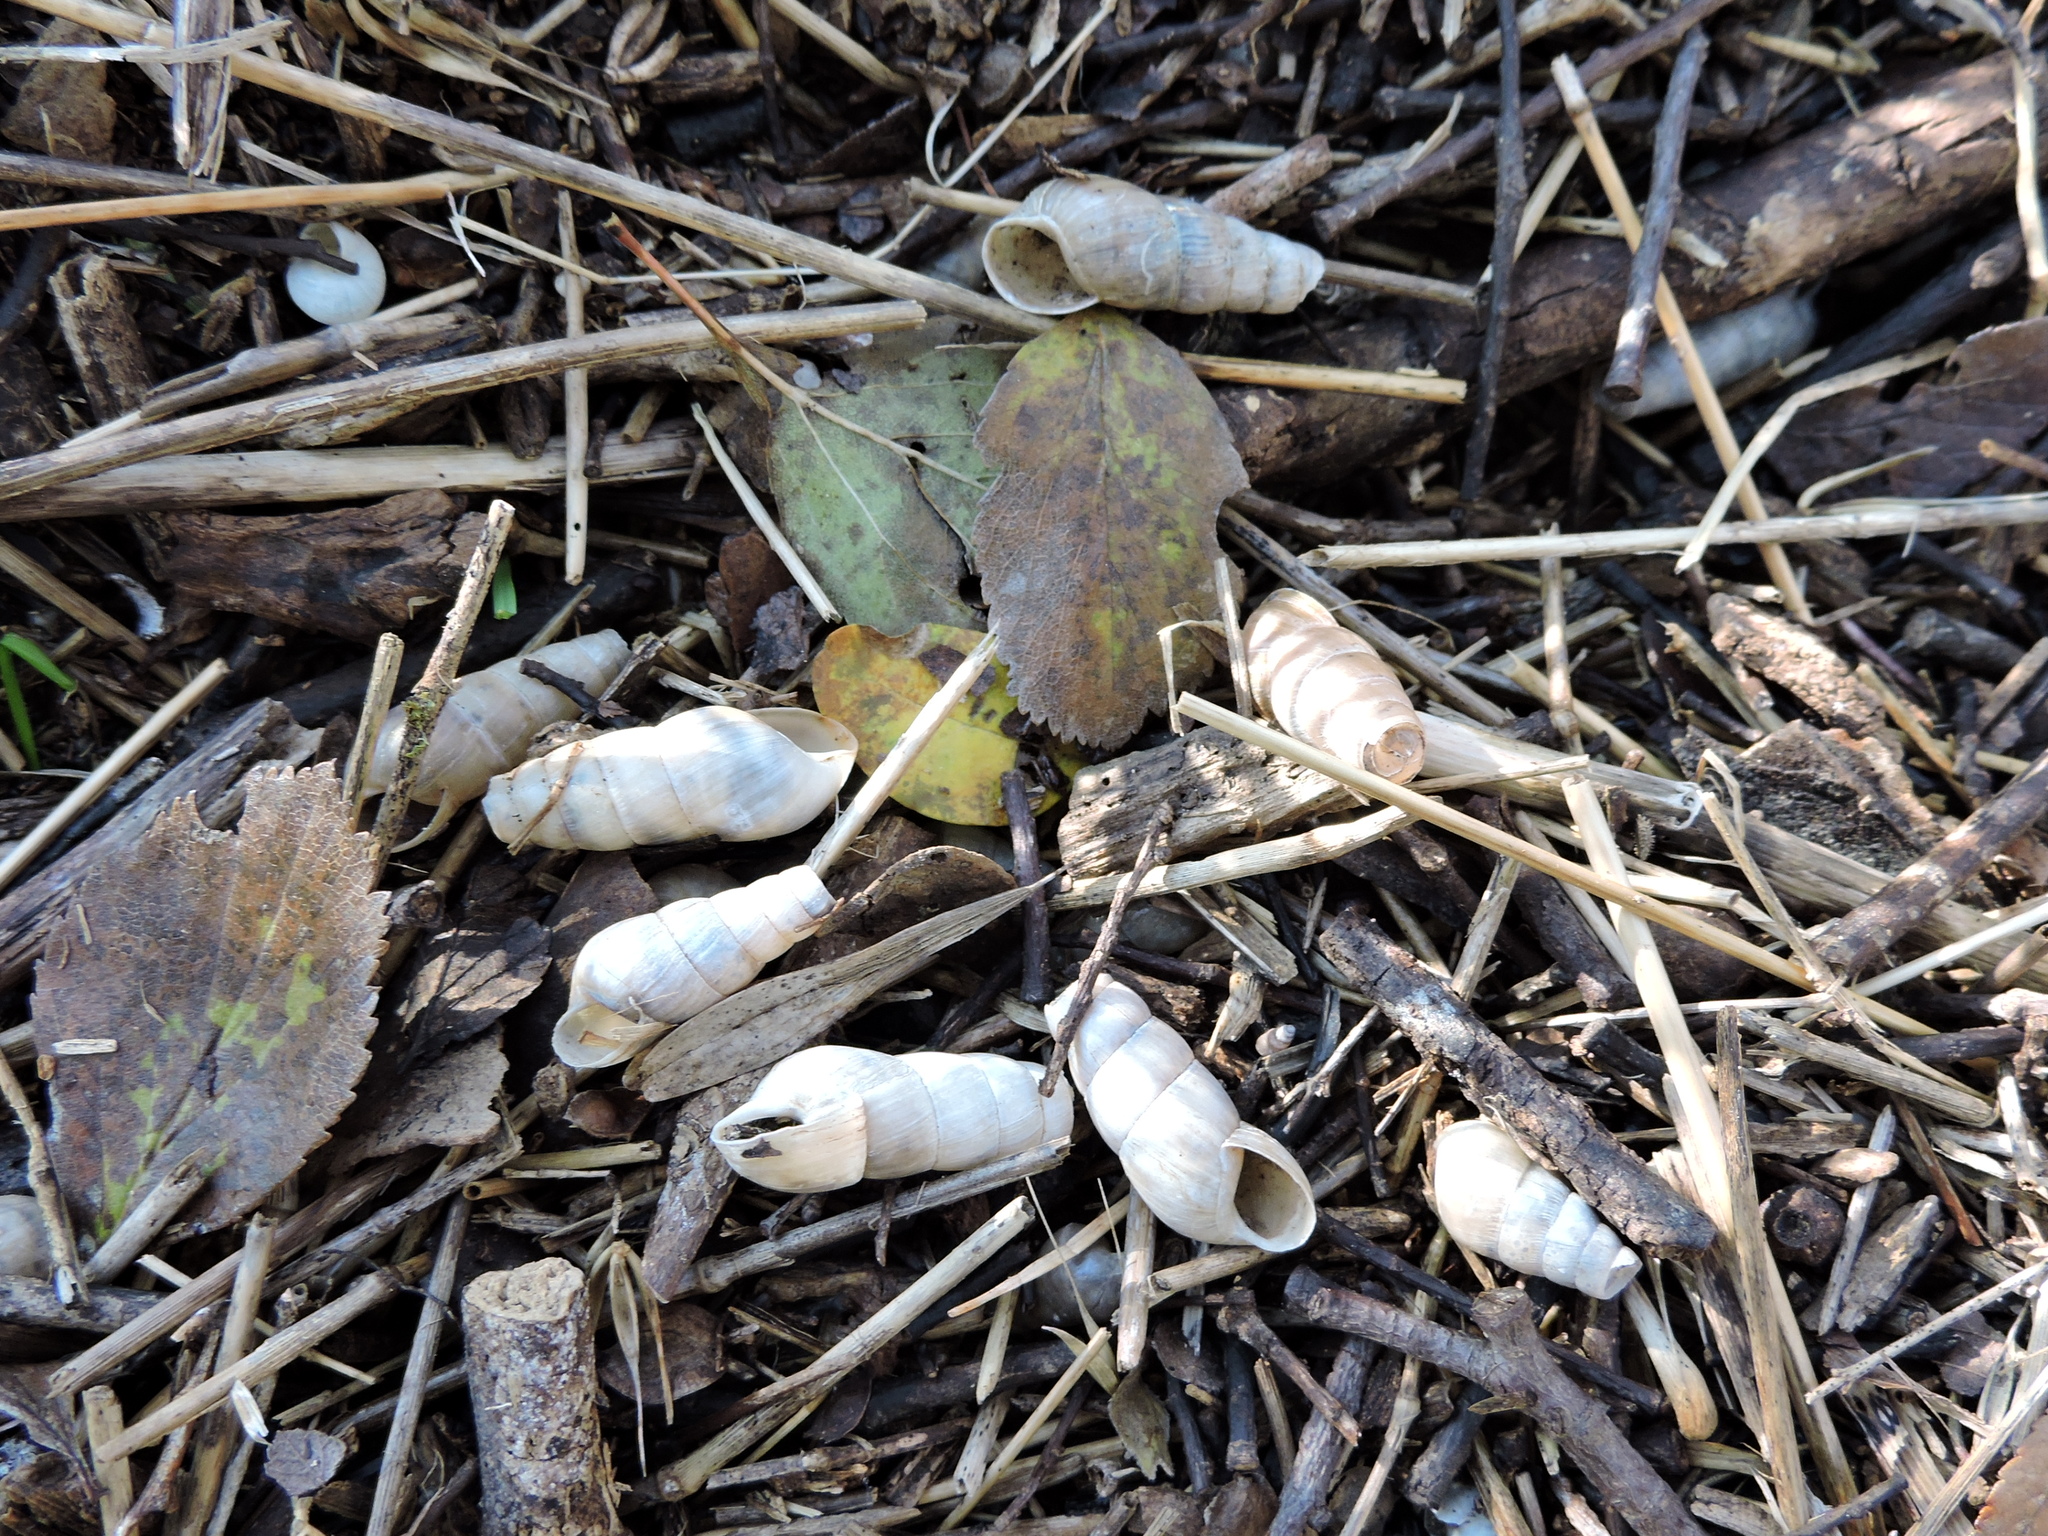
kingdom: Animalia
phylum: Mollusca
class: Gastropoda
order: Stylommatophora
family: Achatinidae
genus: Rumina
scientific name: Rumina decollata
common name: Decollate snail
